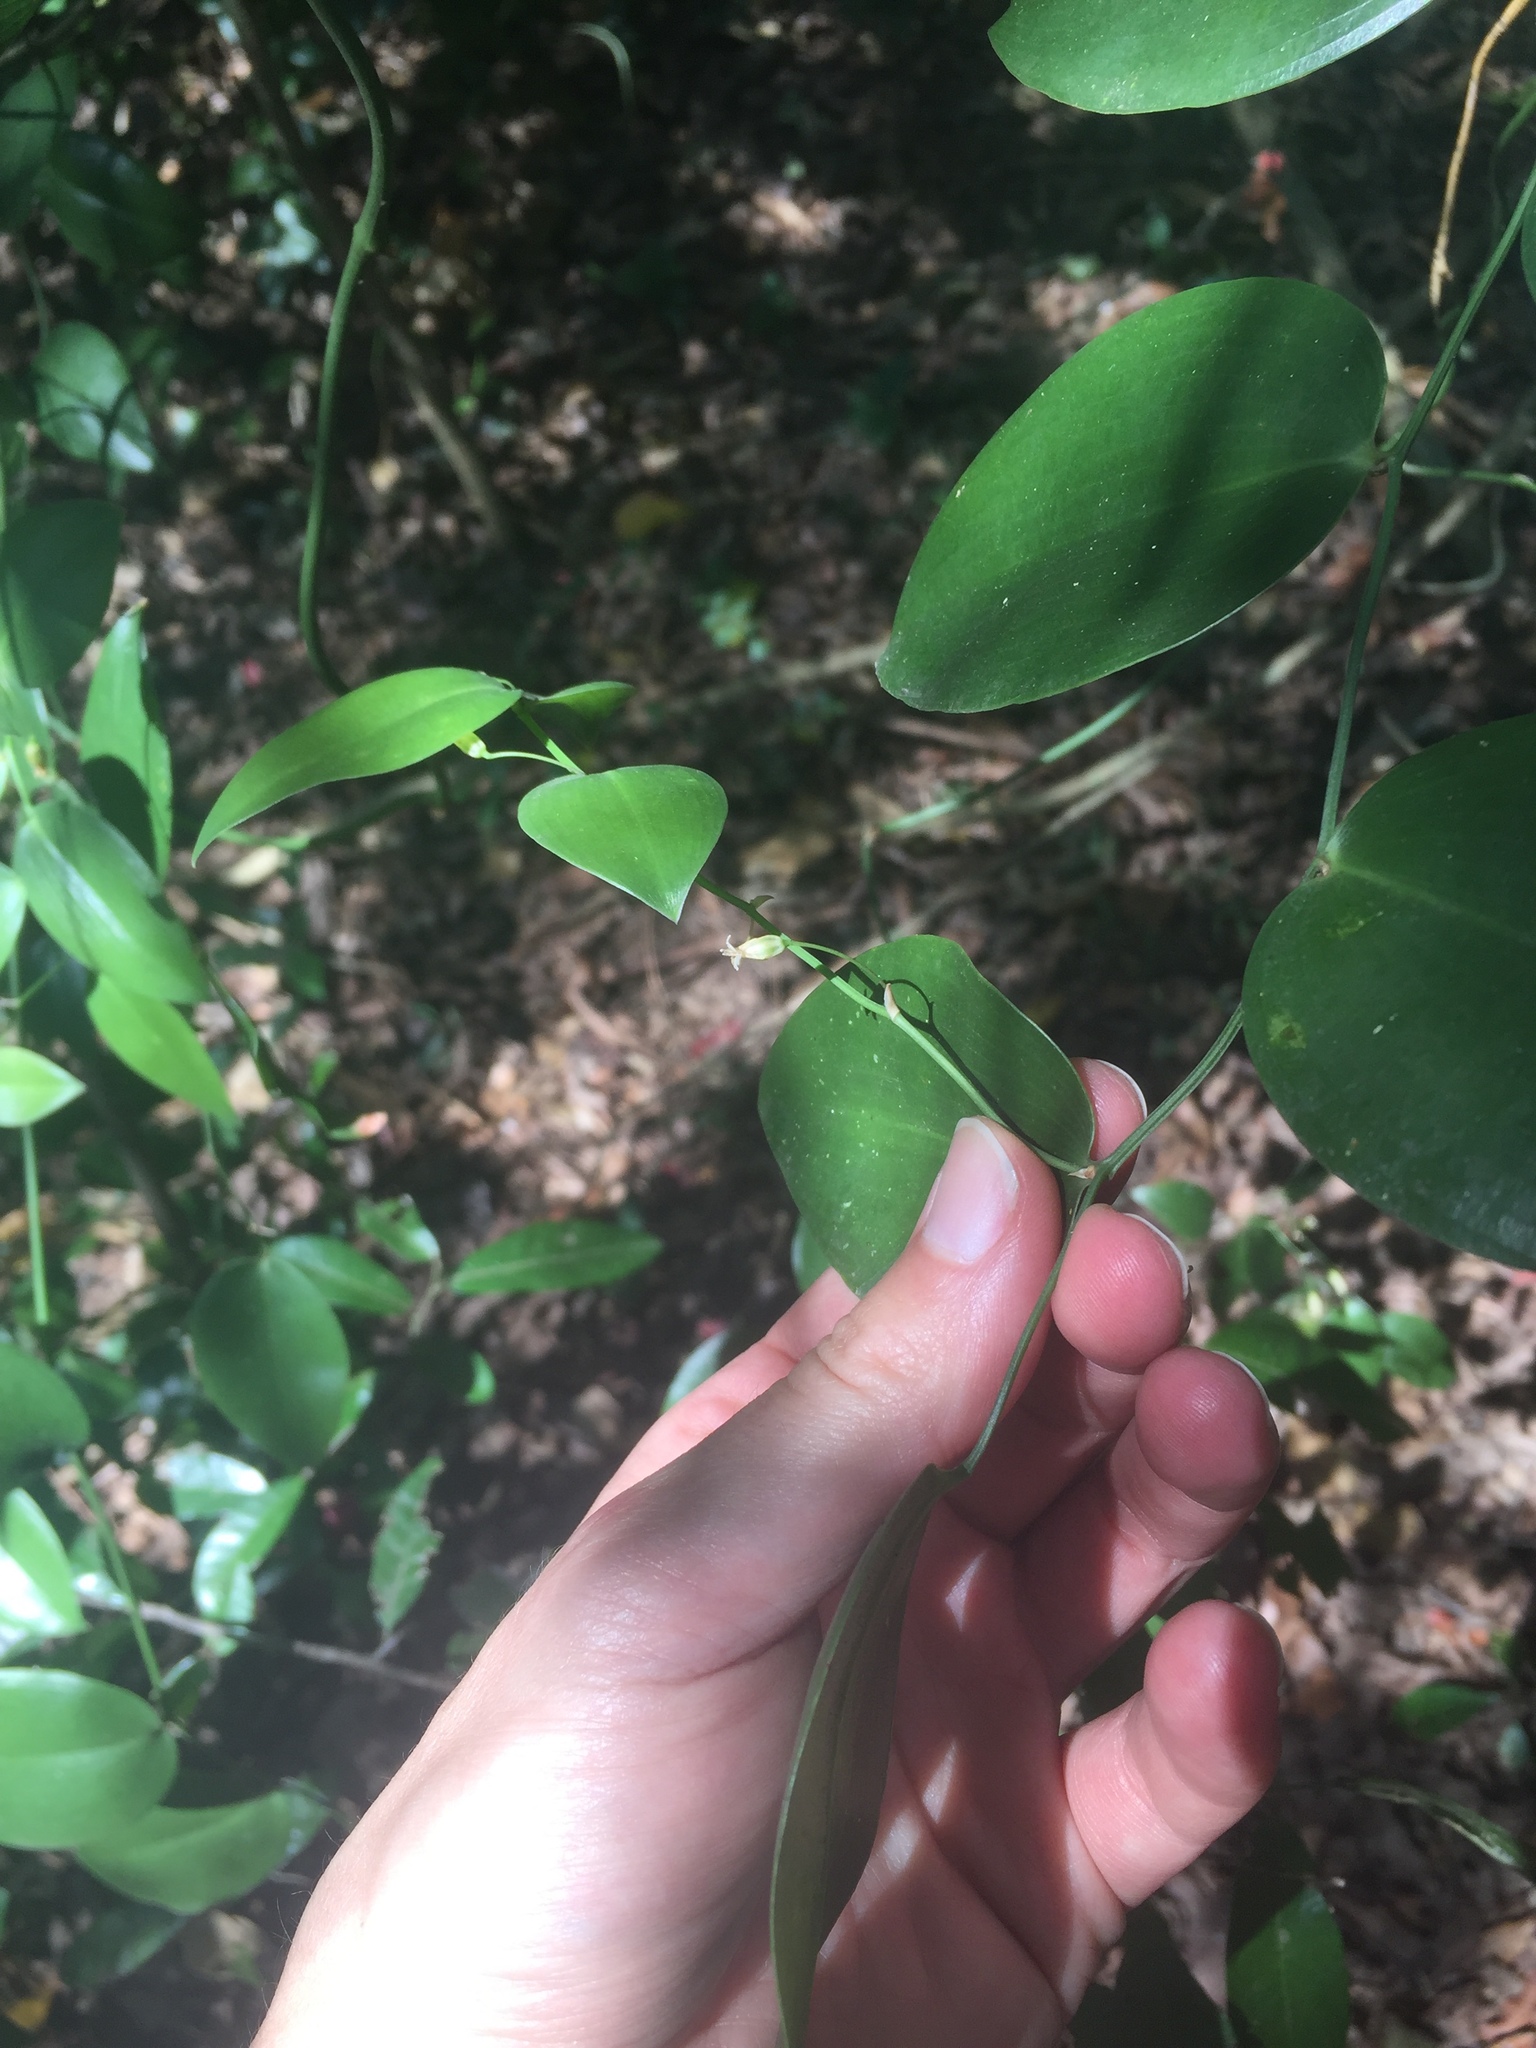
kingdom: Plantae
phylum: Tracheophyta
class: Liliopsida
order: Asparagales
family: Asparagaceae
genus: Behnia
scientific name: Behnia reticulata
